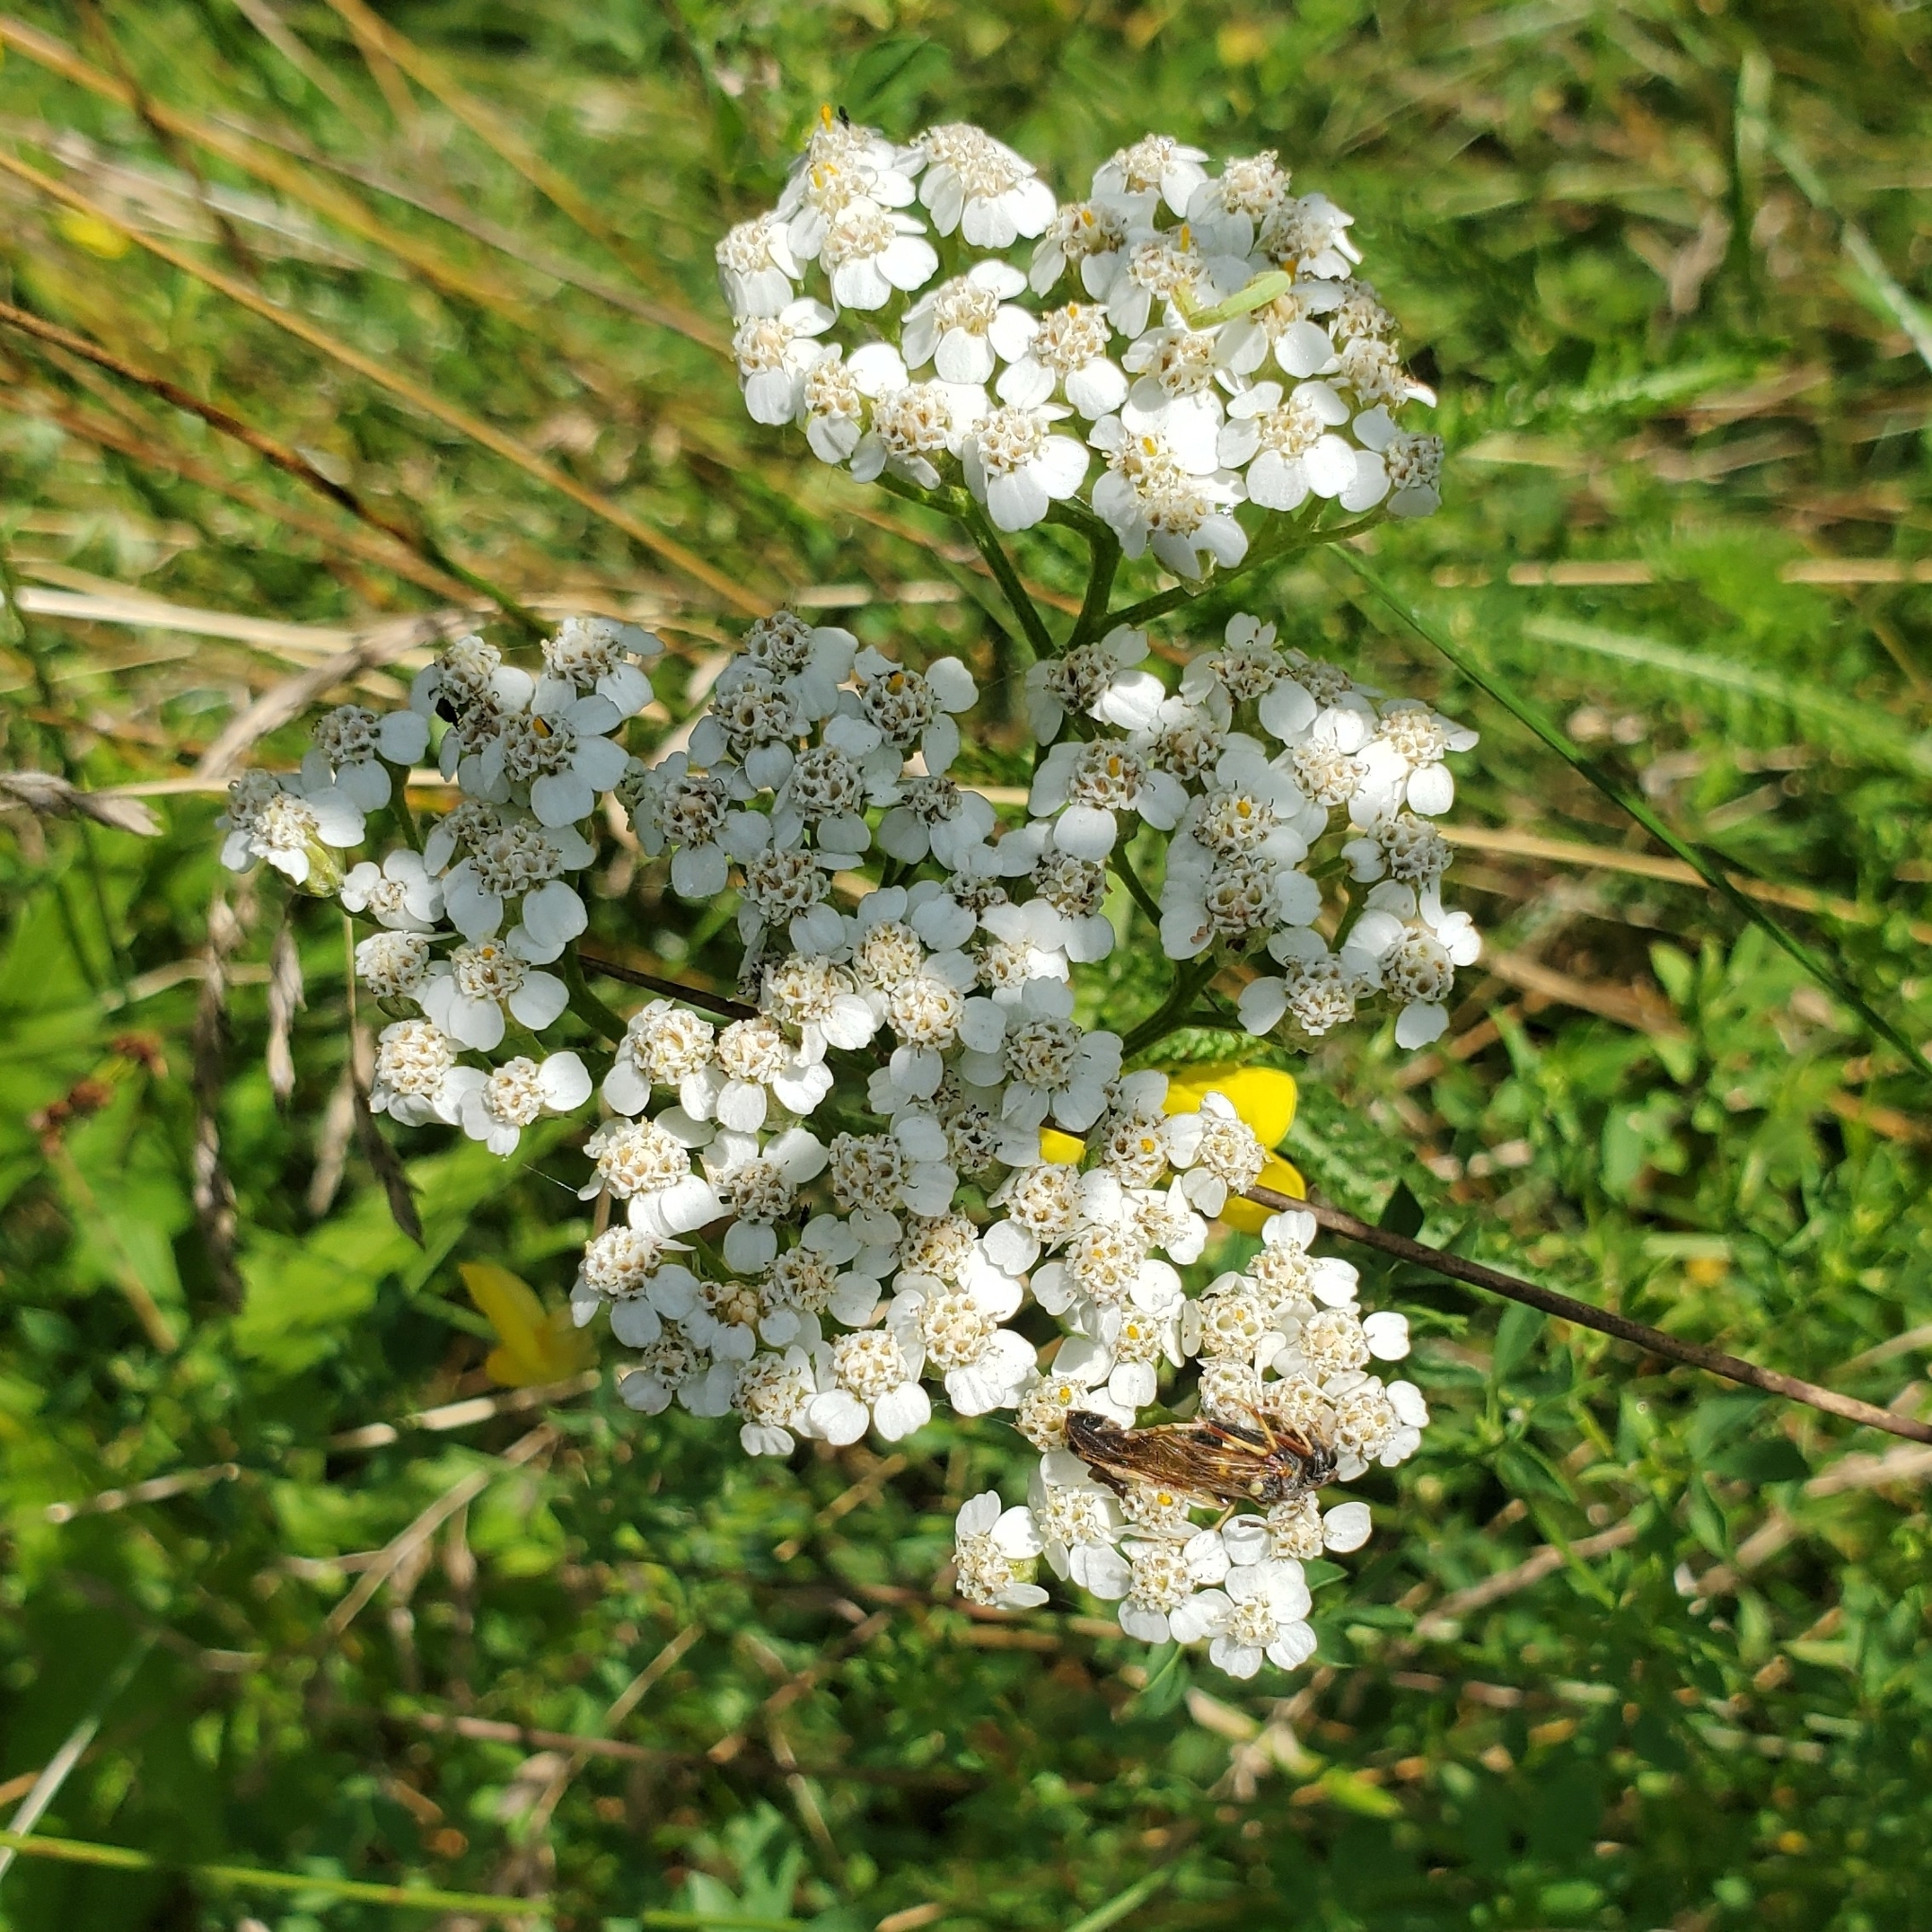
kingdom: Plantae
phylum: Tracheophyta
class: Magnoliopsida
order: Asterales
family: Asteraceae
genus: Achillea
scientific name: Achillea millefolium
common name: Yarrow
